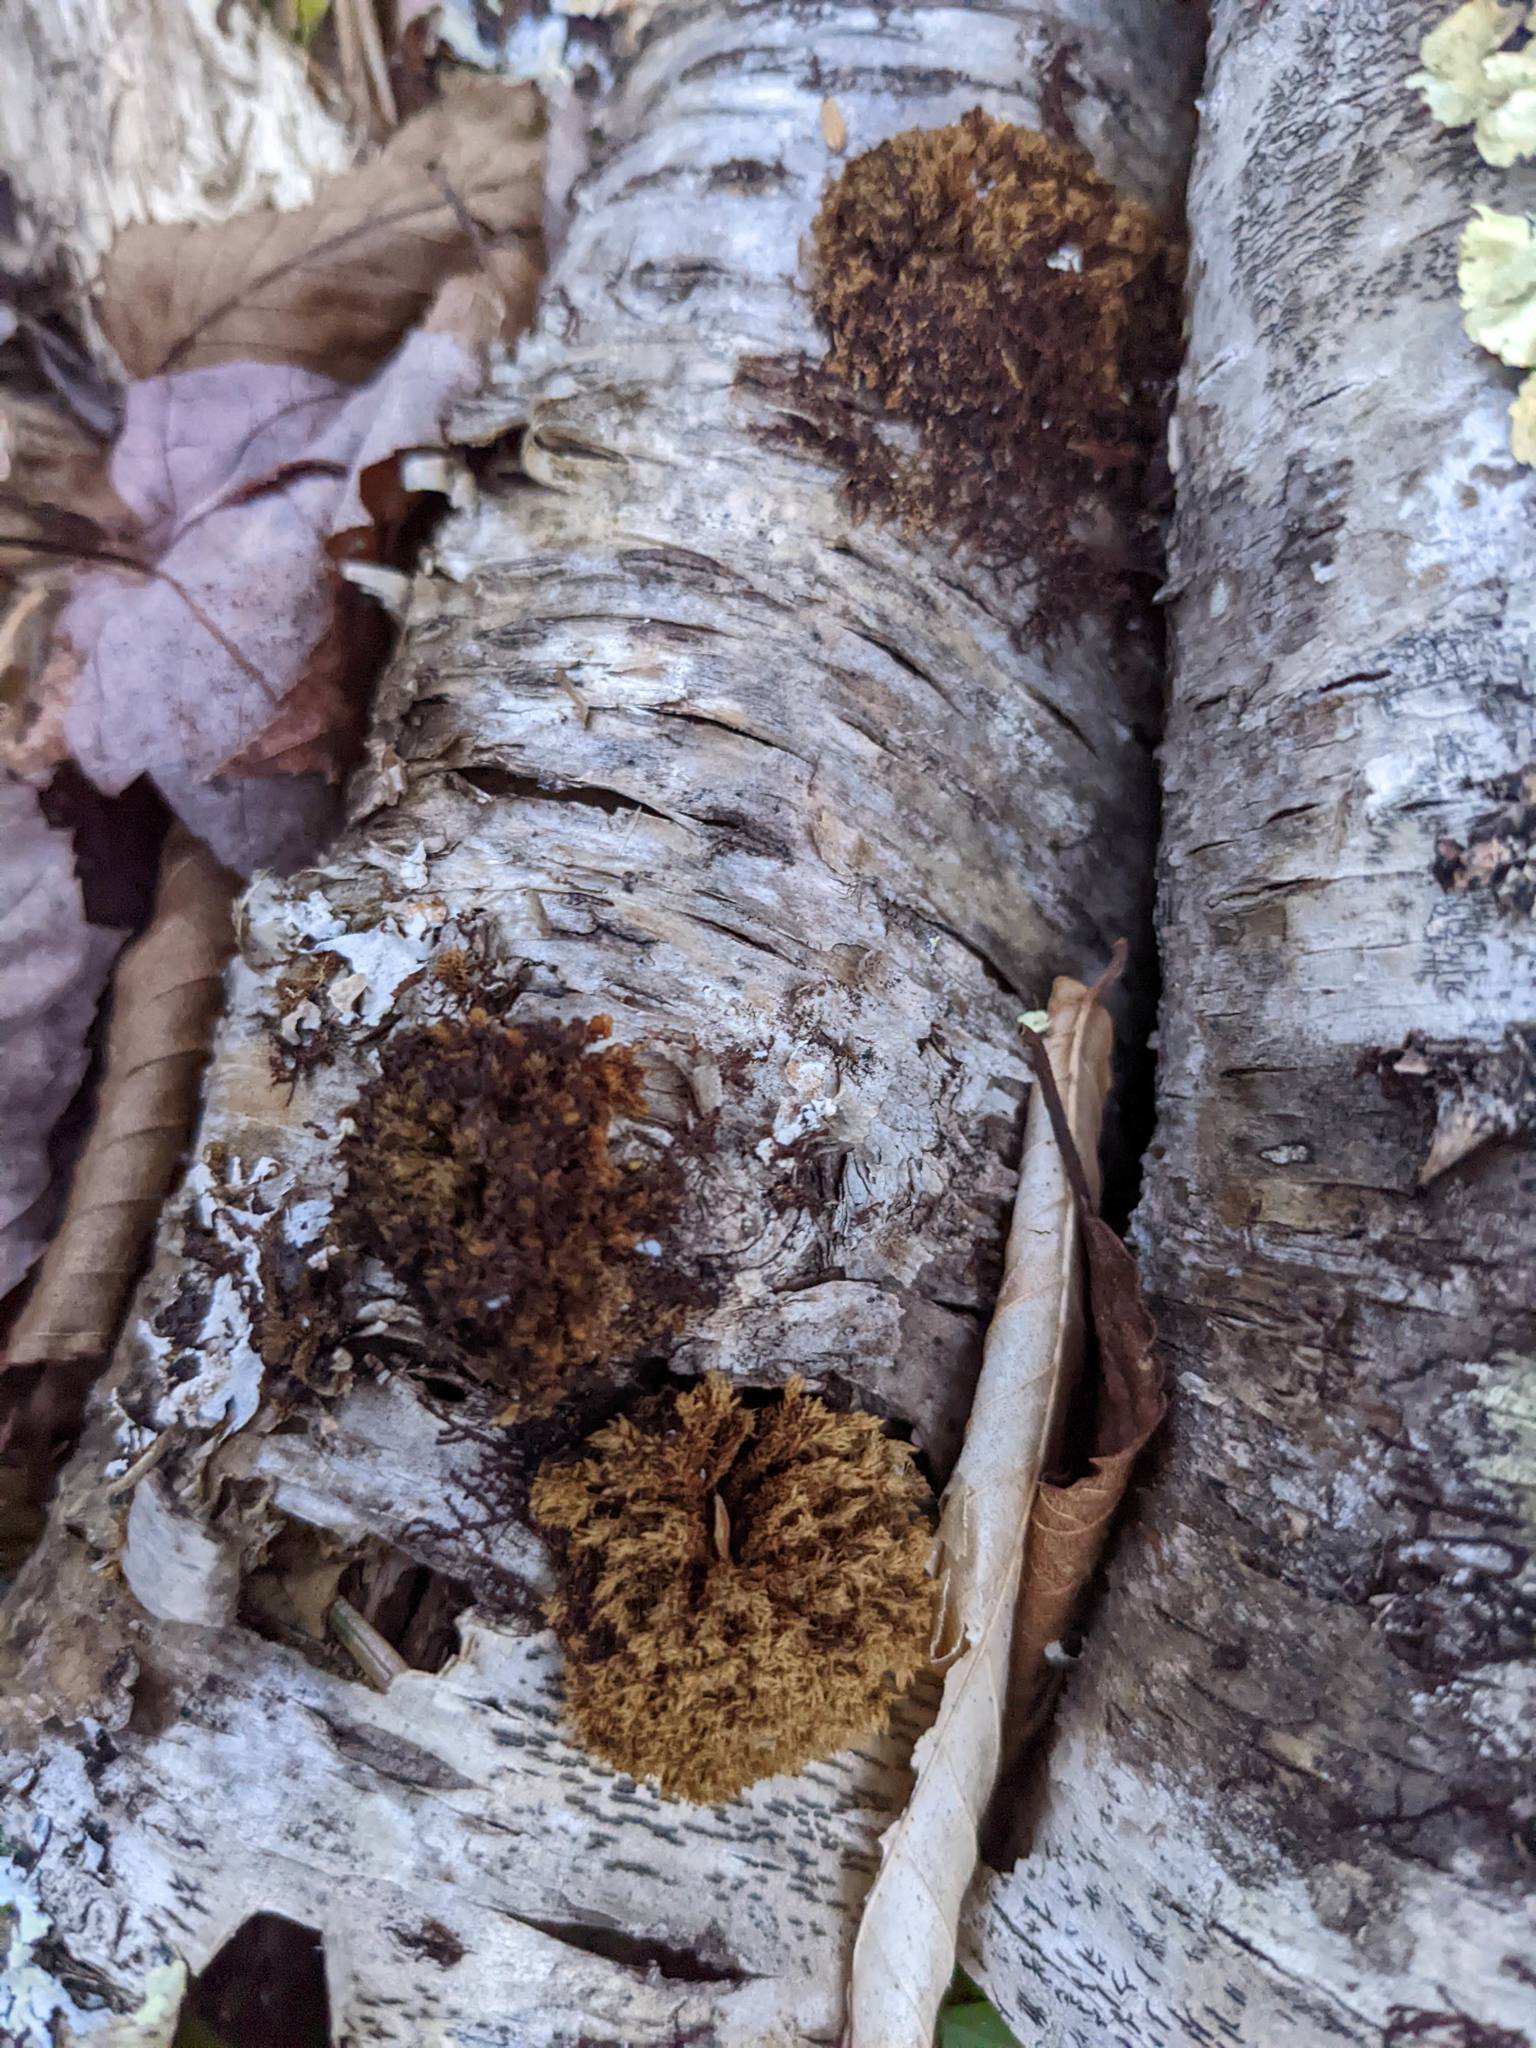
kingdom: Plantae
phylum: Bryophyta
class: Bryopsida
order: Orthotrichales
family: Orthotrichaceae
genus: Ulota
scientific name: Ulota crispa
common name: Crisped pincushion moss
